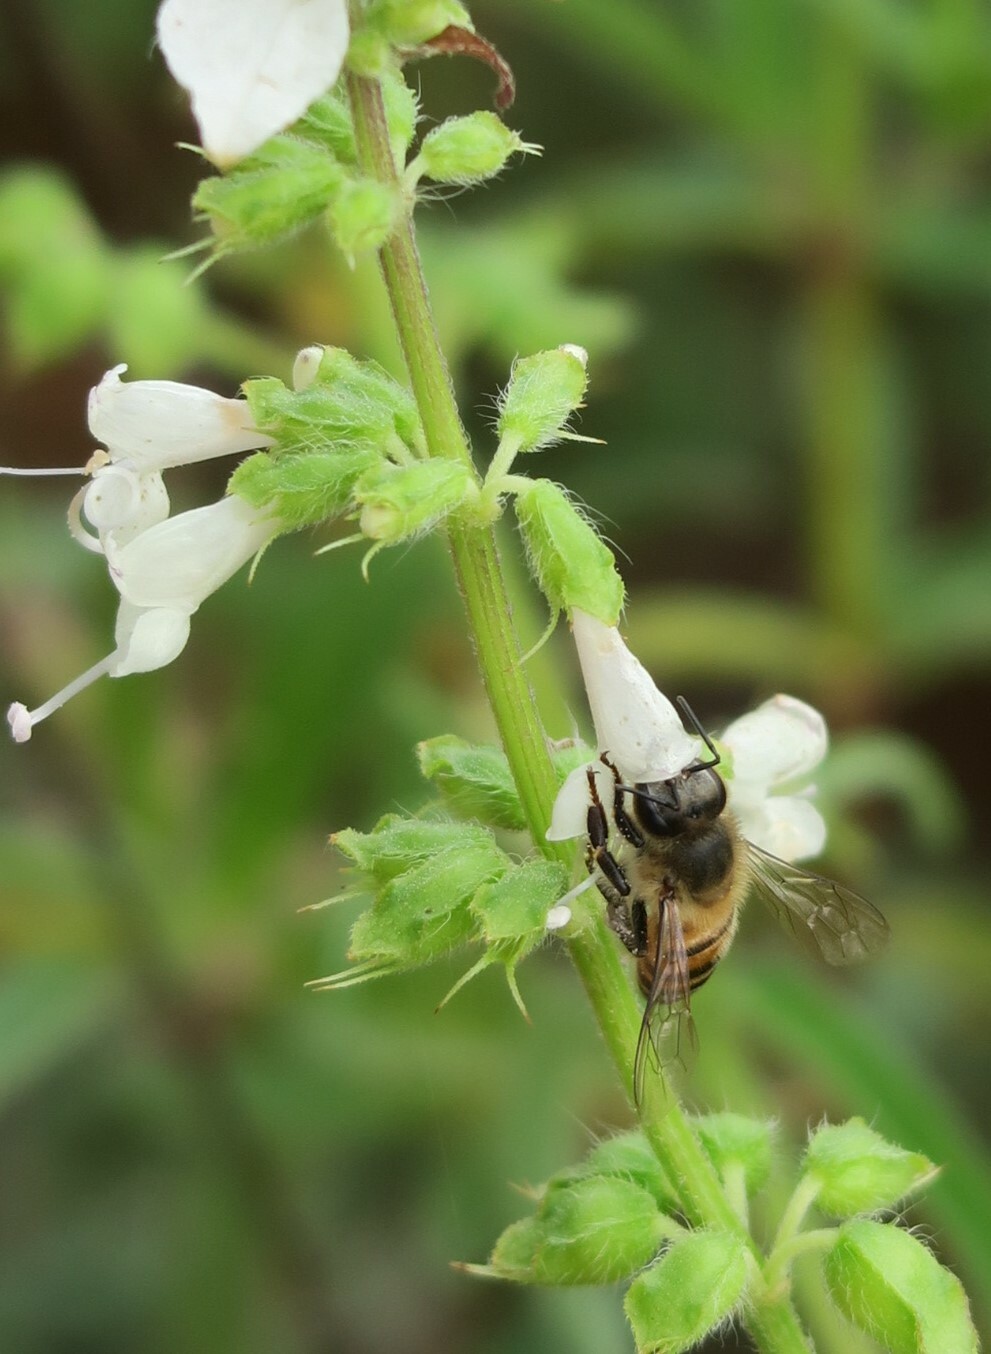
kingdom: Plantae
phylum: Tracheophyta
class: Magnoliopsida
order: Lamiales
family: Lamiaceae
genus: Syncolostemon
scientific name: Syncolostemon bracteosus
